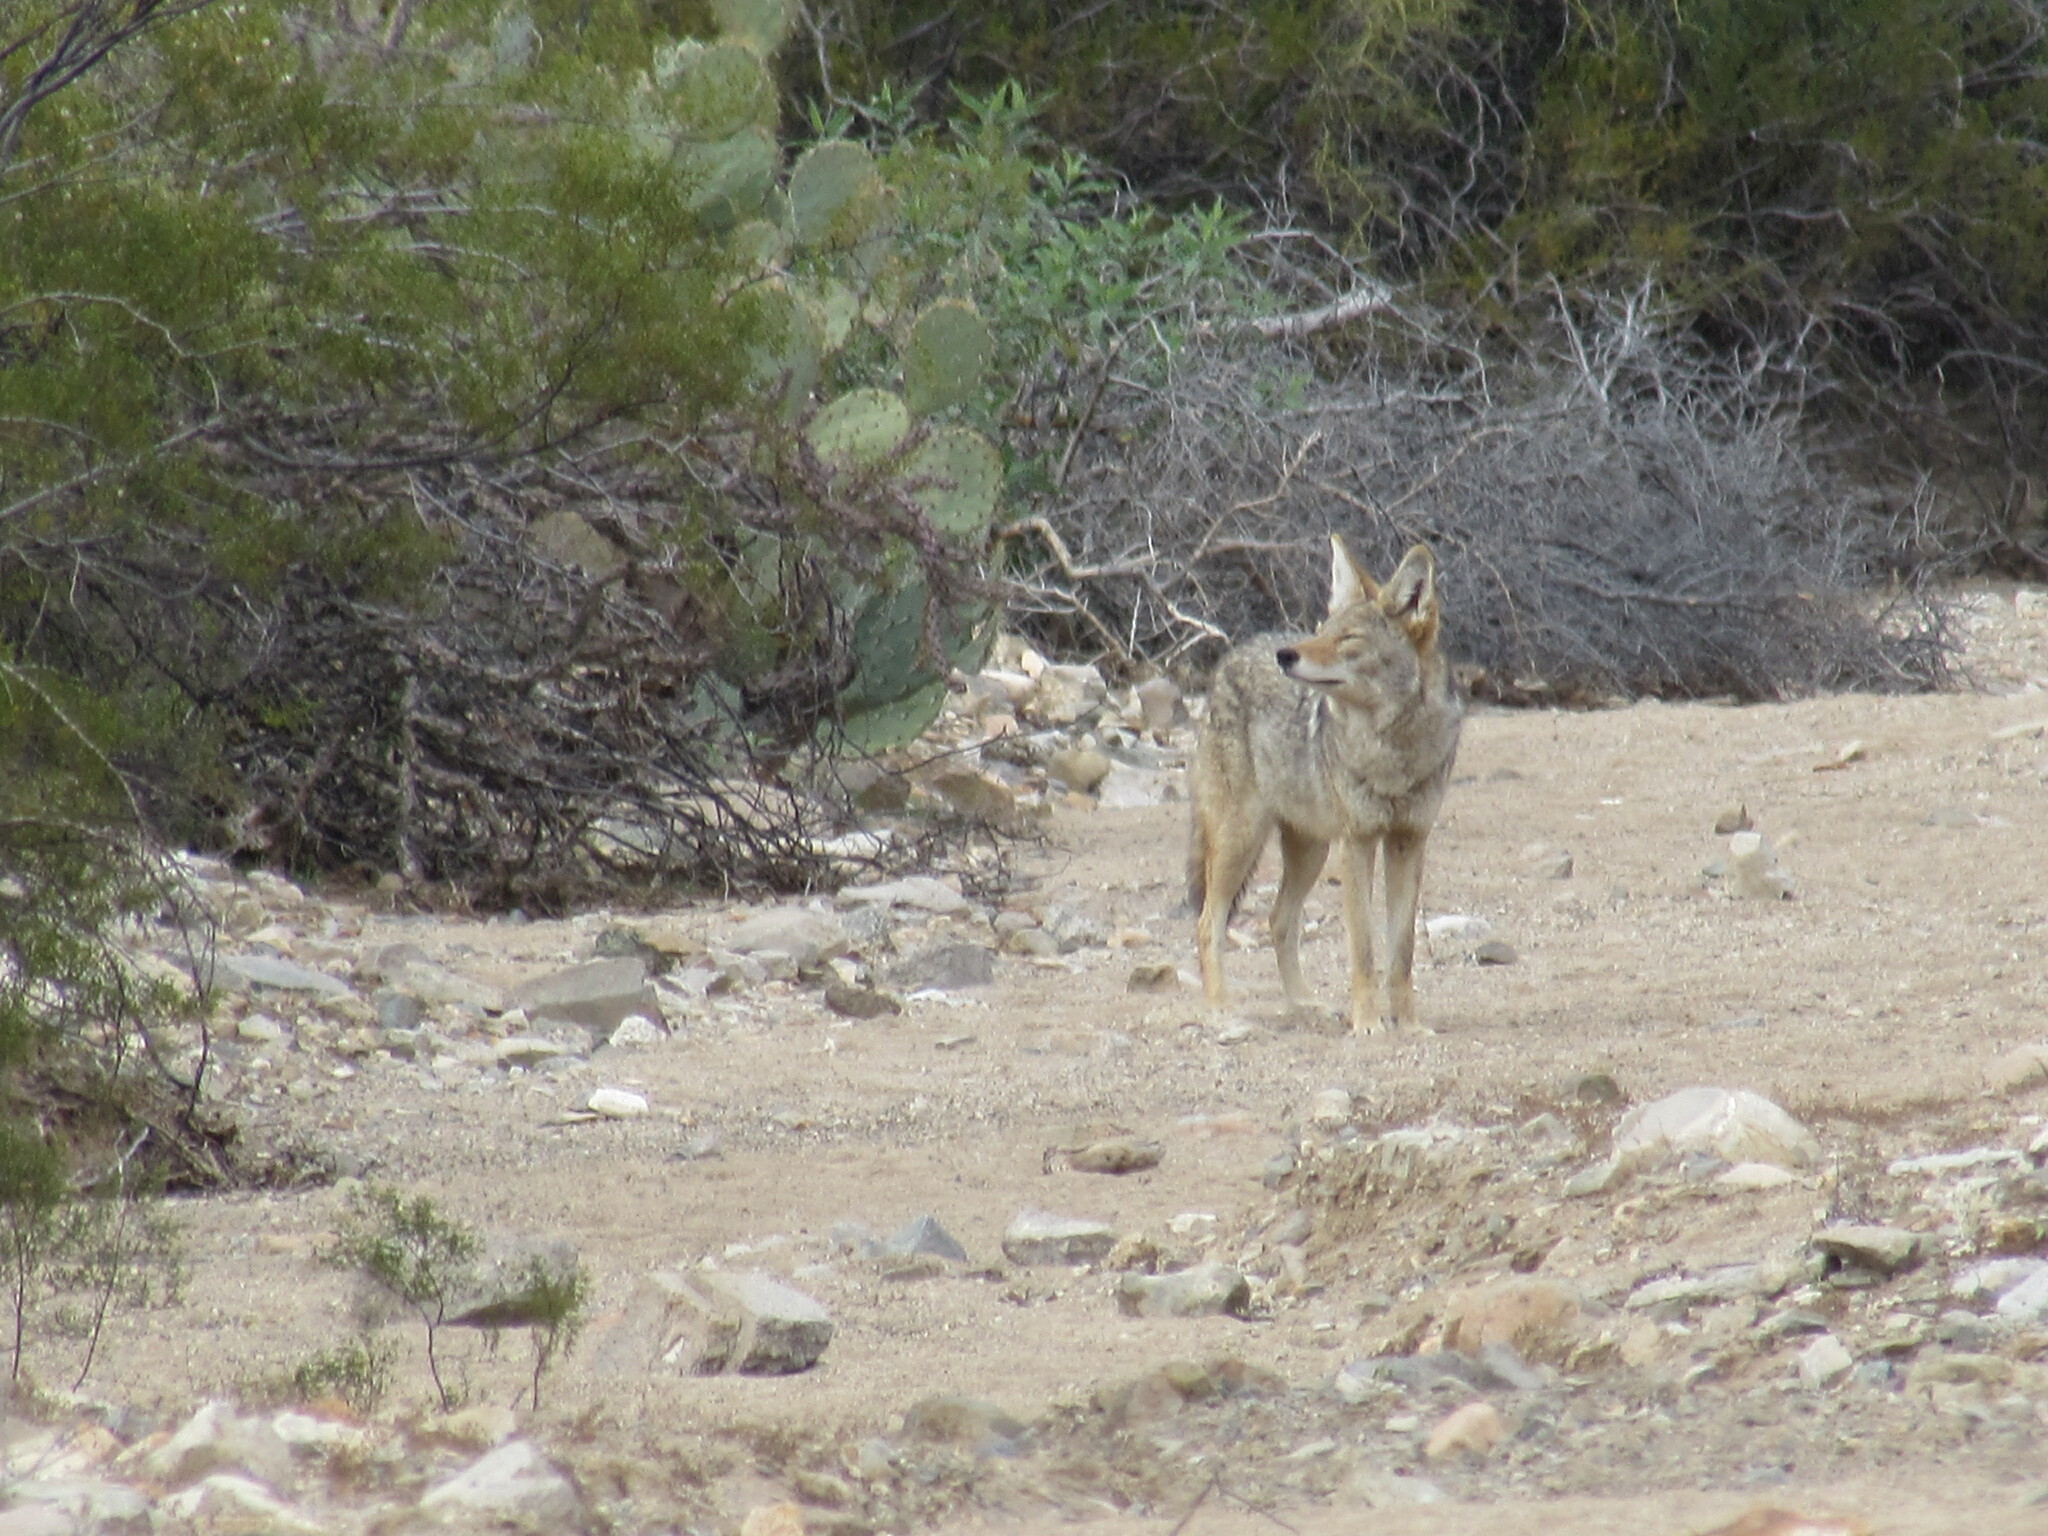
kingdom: Animalia
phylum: Chordata
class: Mammalia
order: Carnivora
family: Canidae
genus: Canis
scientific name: Canis latrans
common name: Coyote
